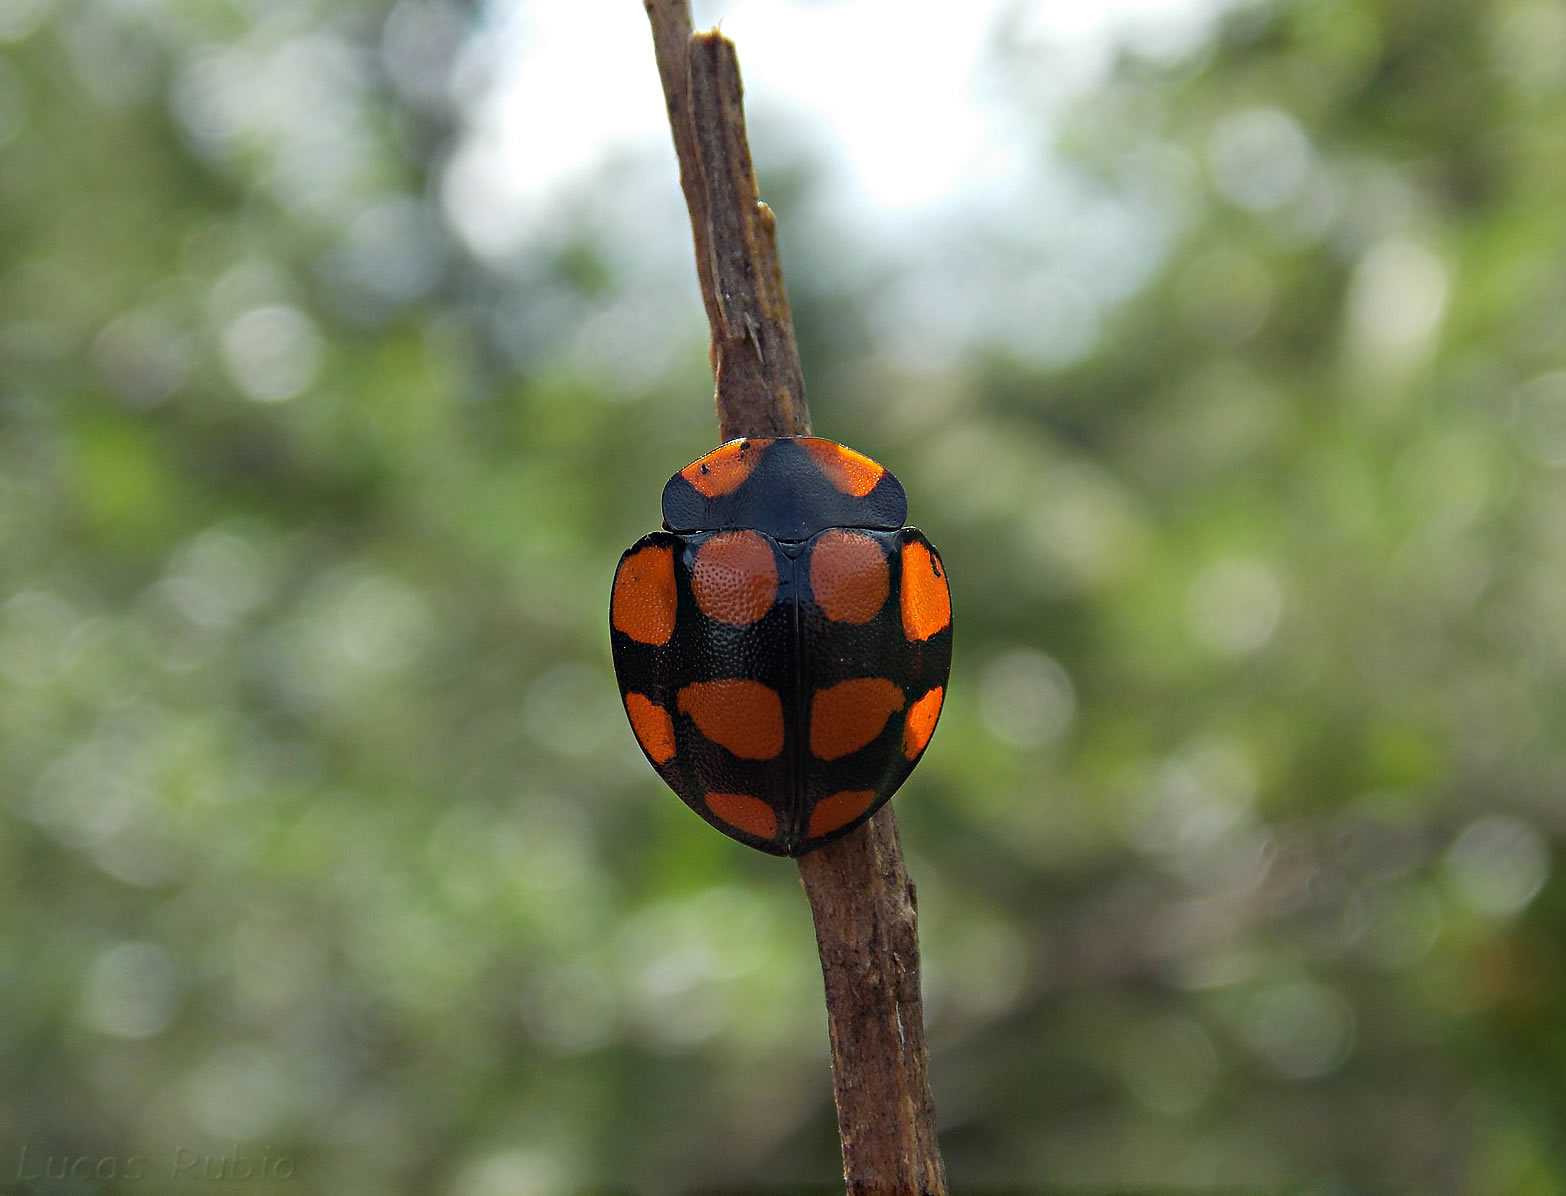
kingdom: Animalia
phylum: Arthropoda
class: Insecta
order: Coleoptera
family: Chrysomelidae
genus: Botanochara
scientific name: Botanochara decempustulata
